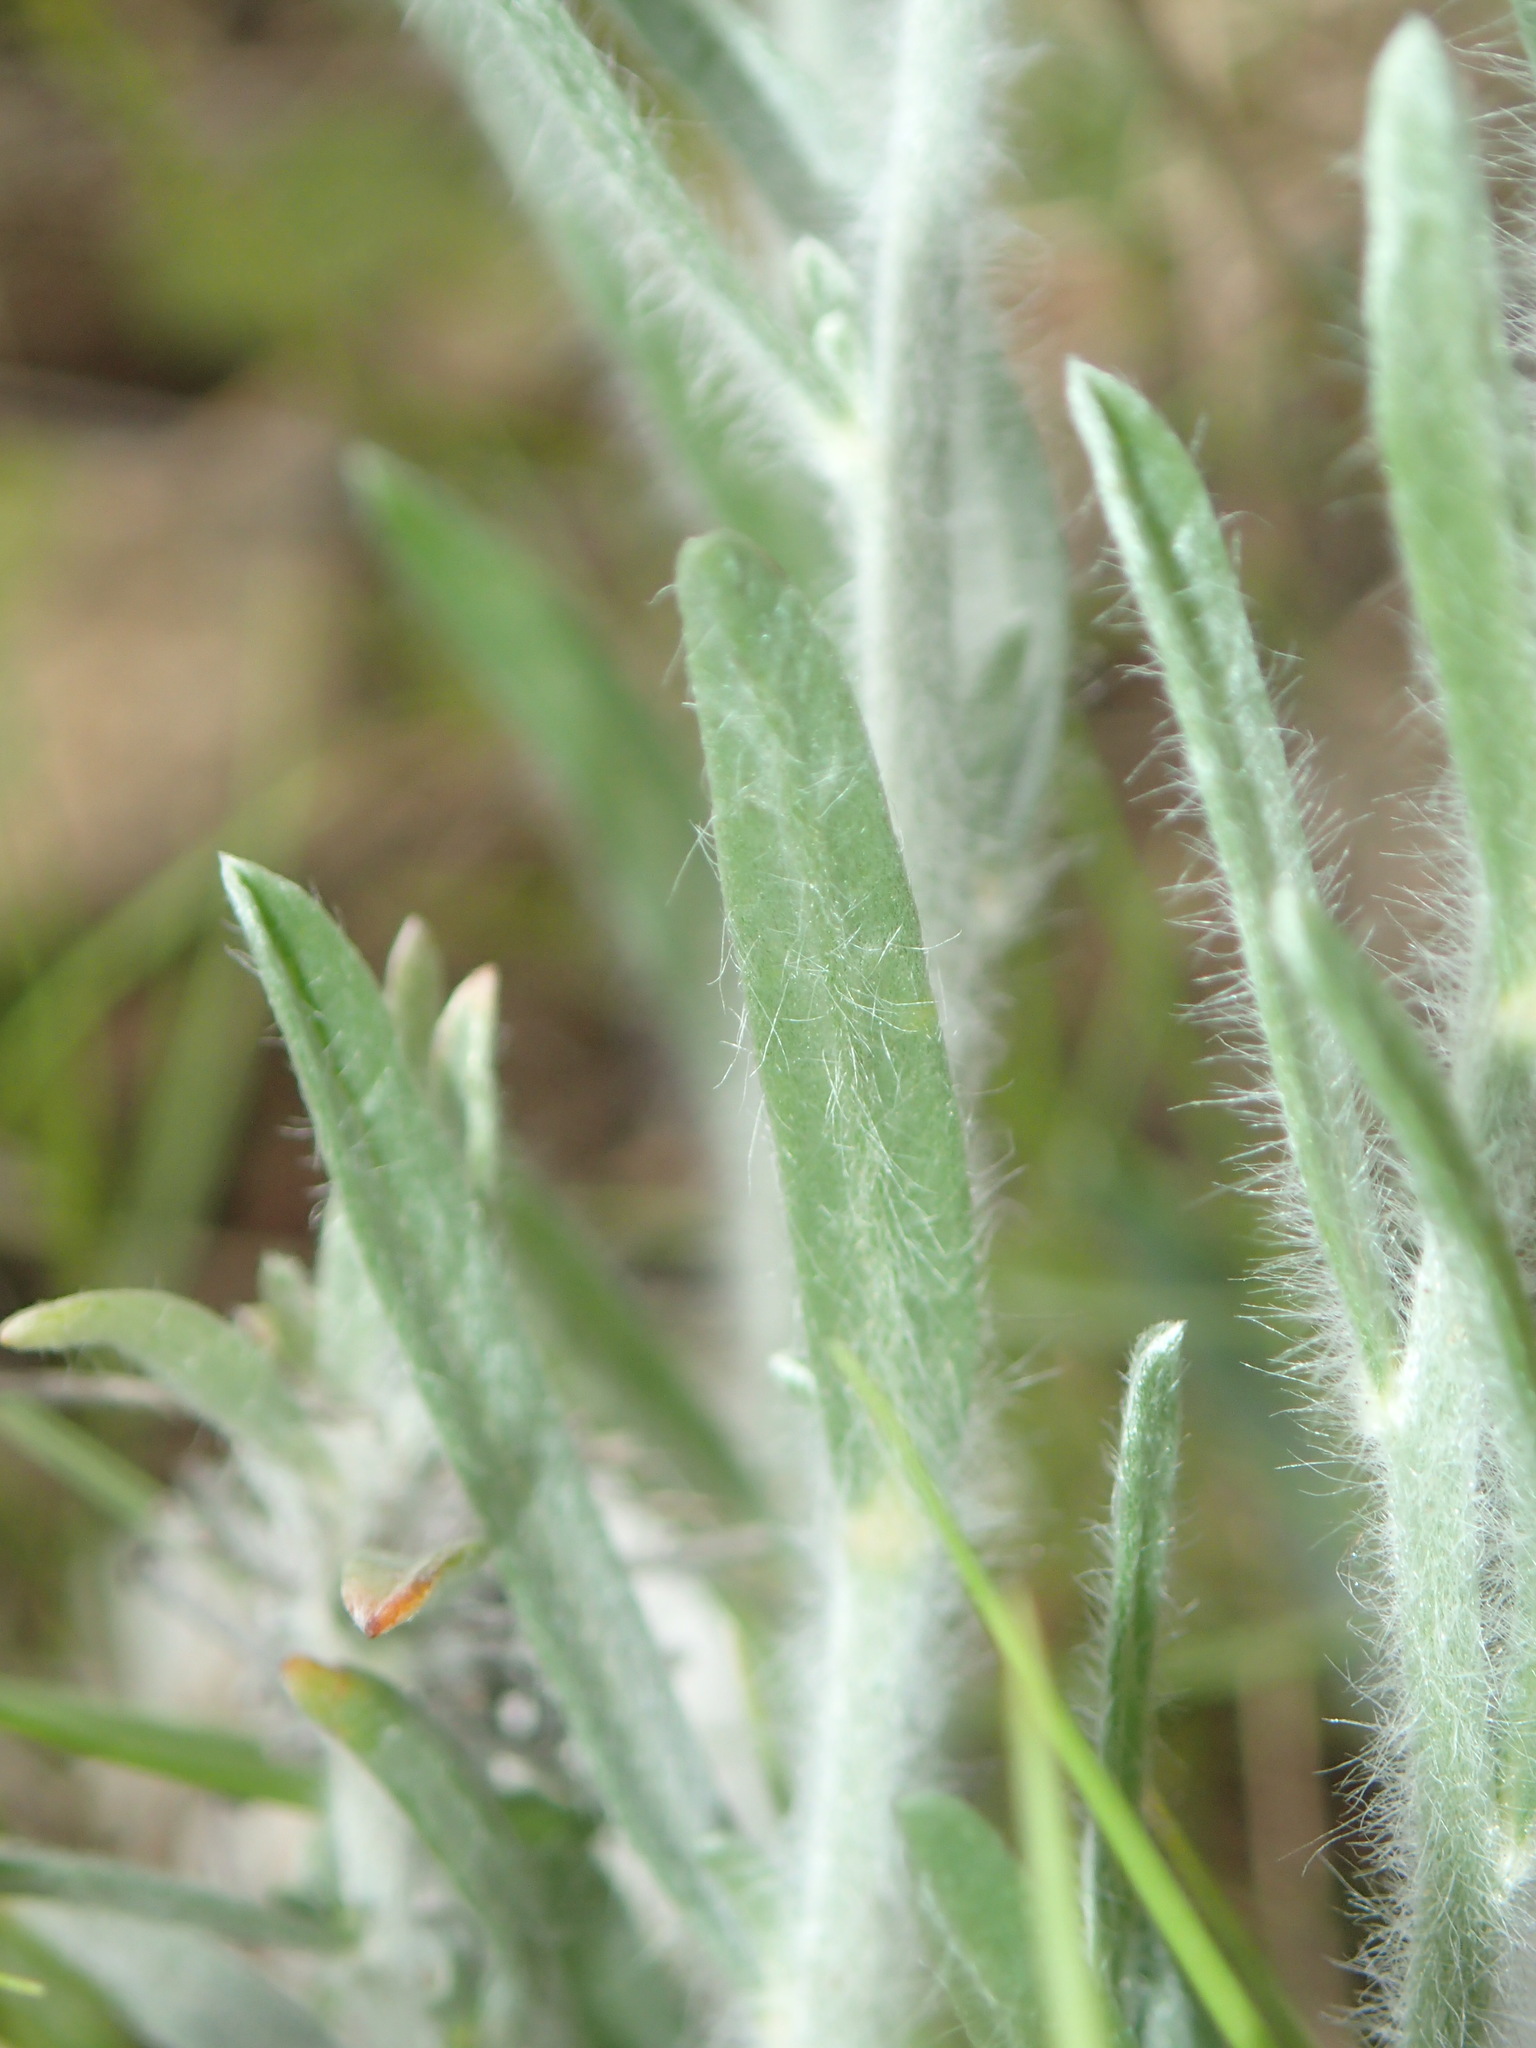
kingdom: Plantae
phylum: Tracheophyta
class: Magnoliopsida
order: Solanales
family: Convolvulaceae
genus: Convolvulus
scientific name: Convolvulus lanuginosus
